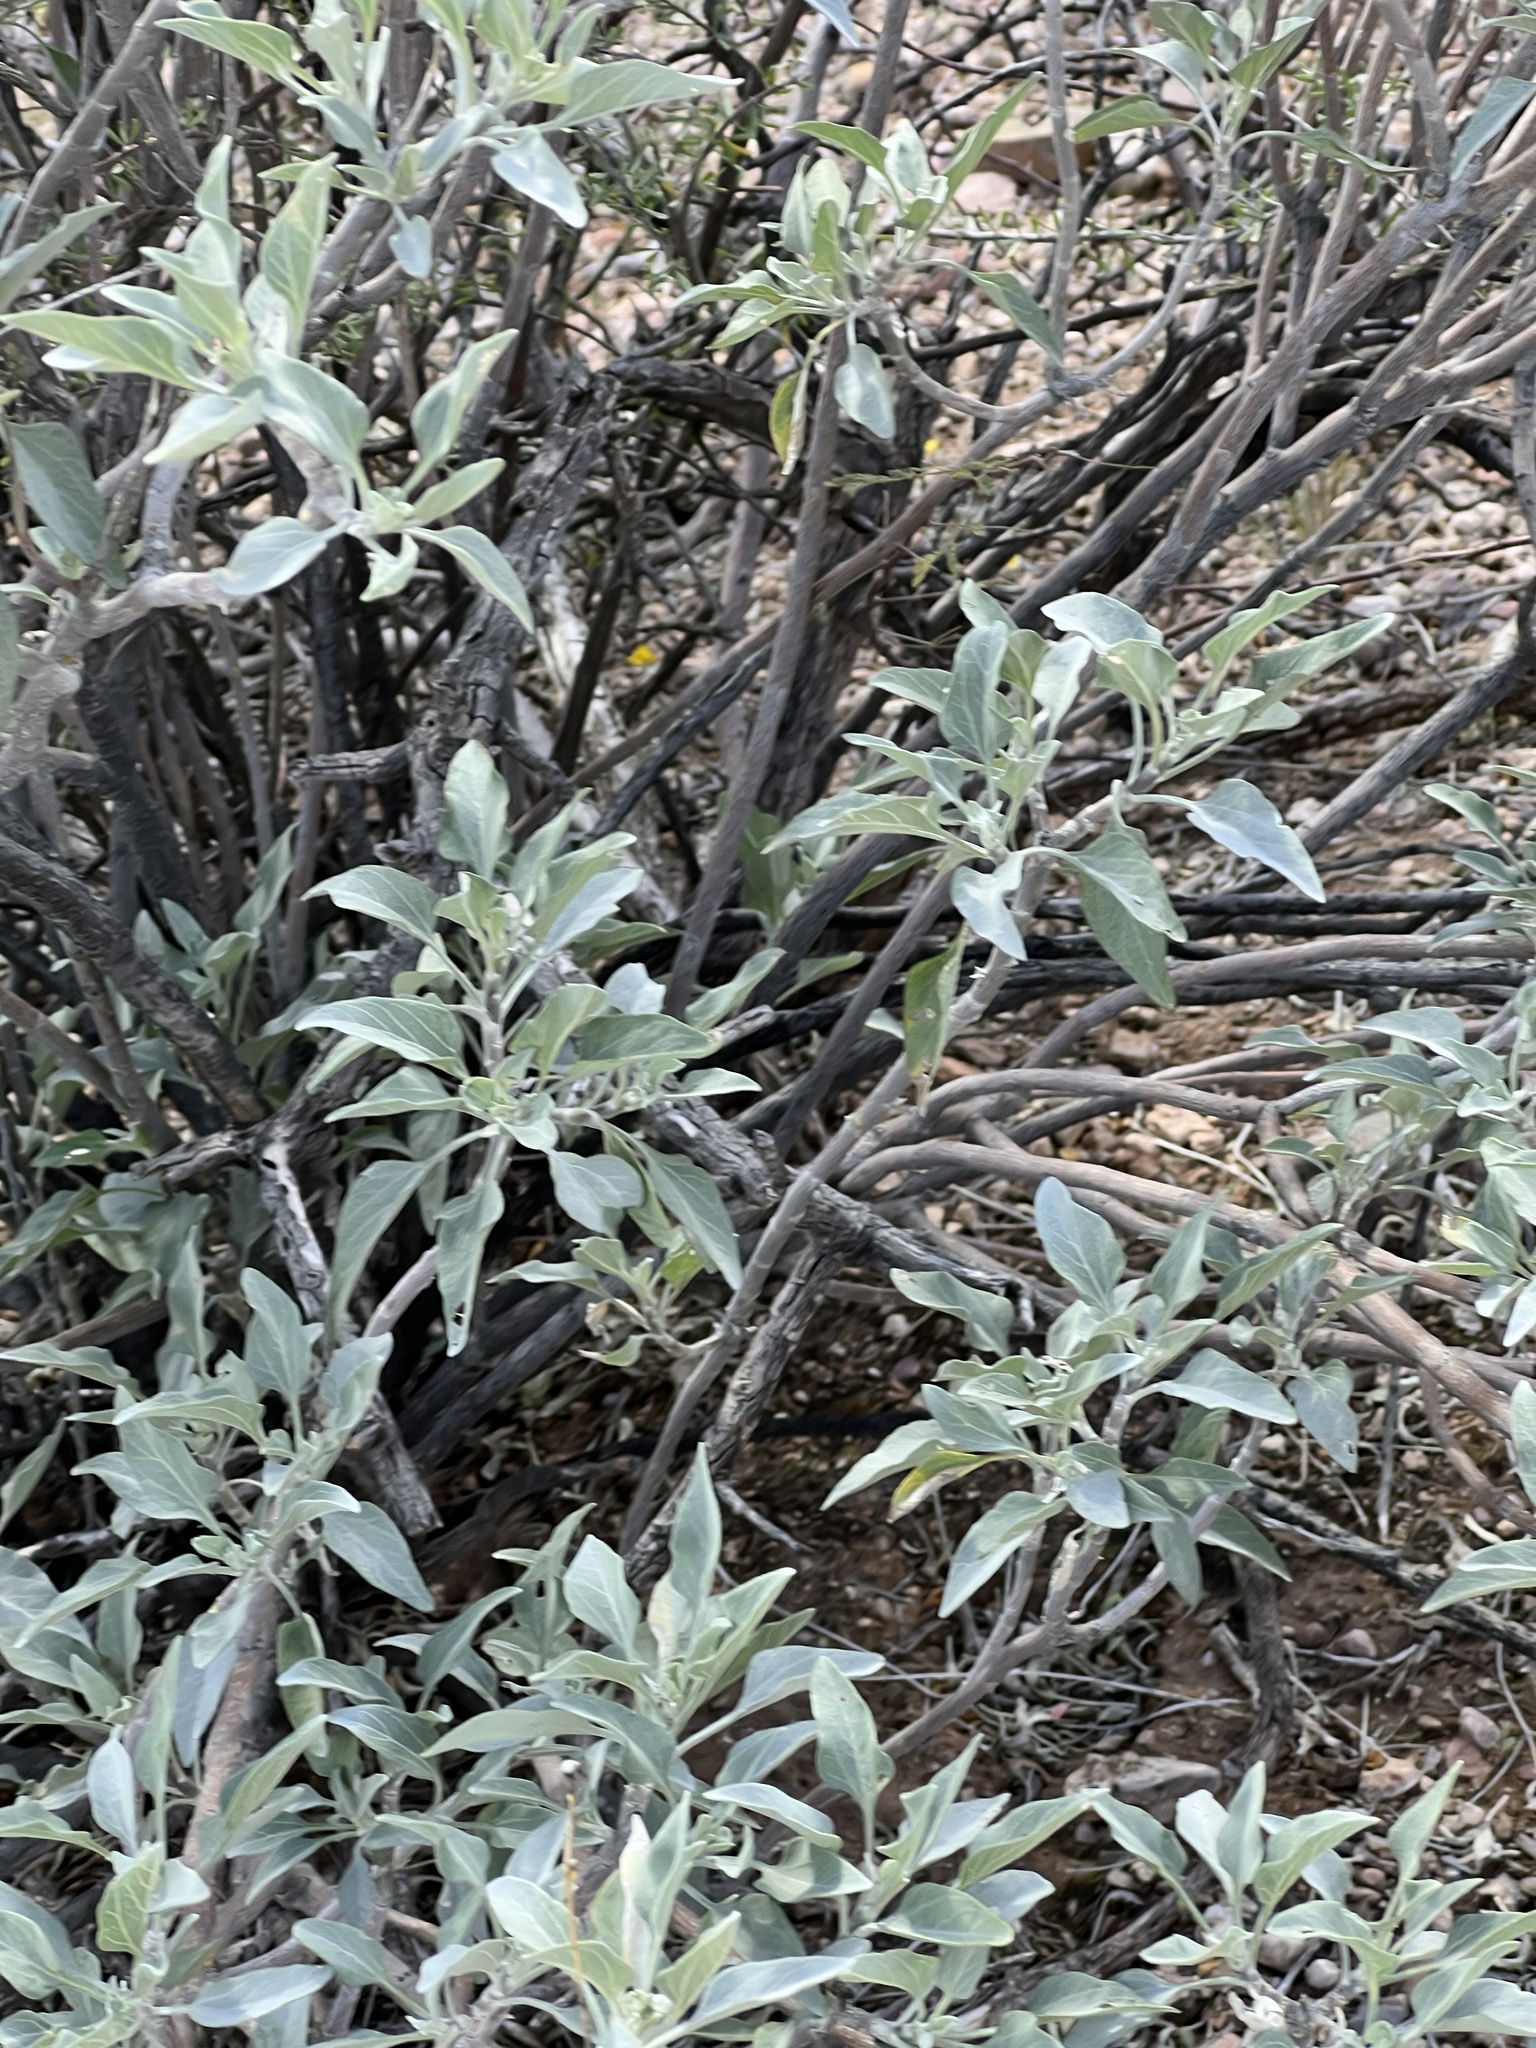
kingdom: Plantae
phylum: Tracheophyta
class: Magnoliopsida
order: Asterales
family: Asteraceae
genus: Encelia
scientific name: Encelia farinosa
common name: Brittlebush
